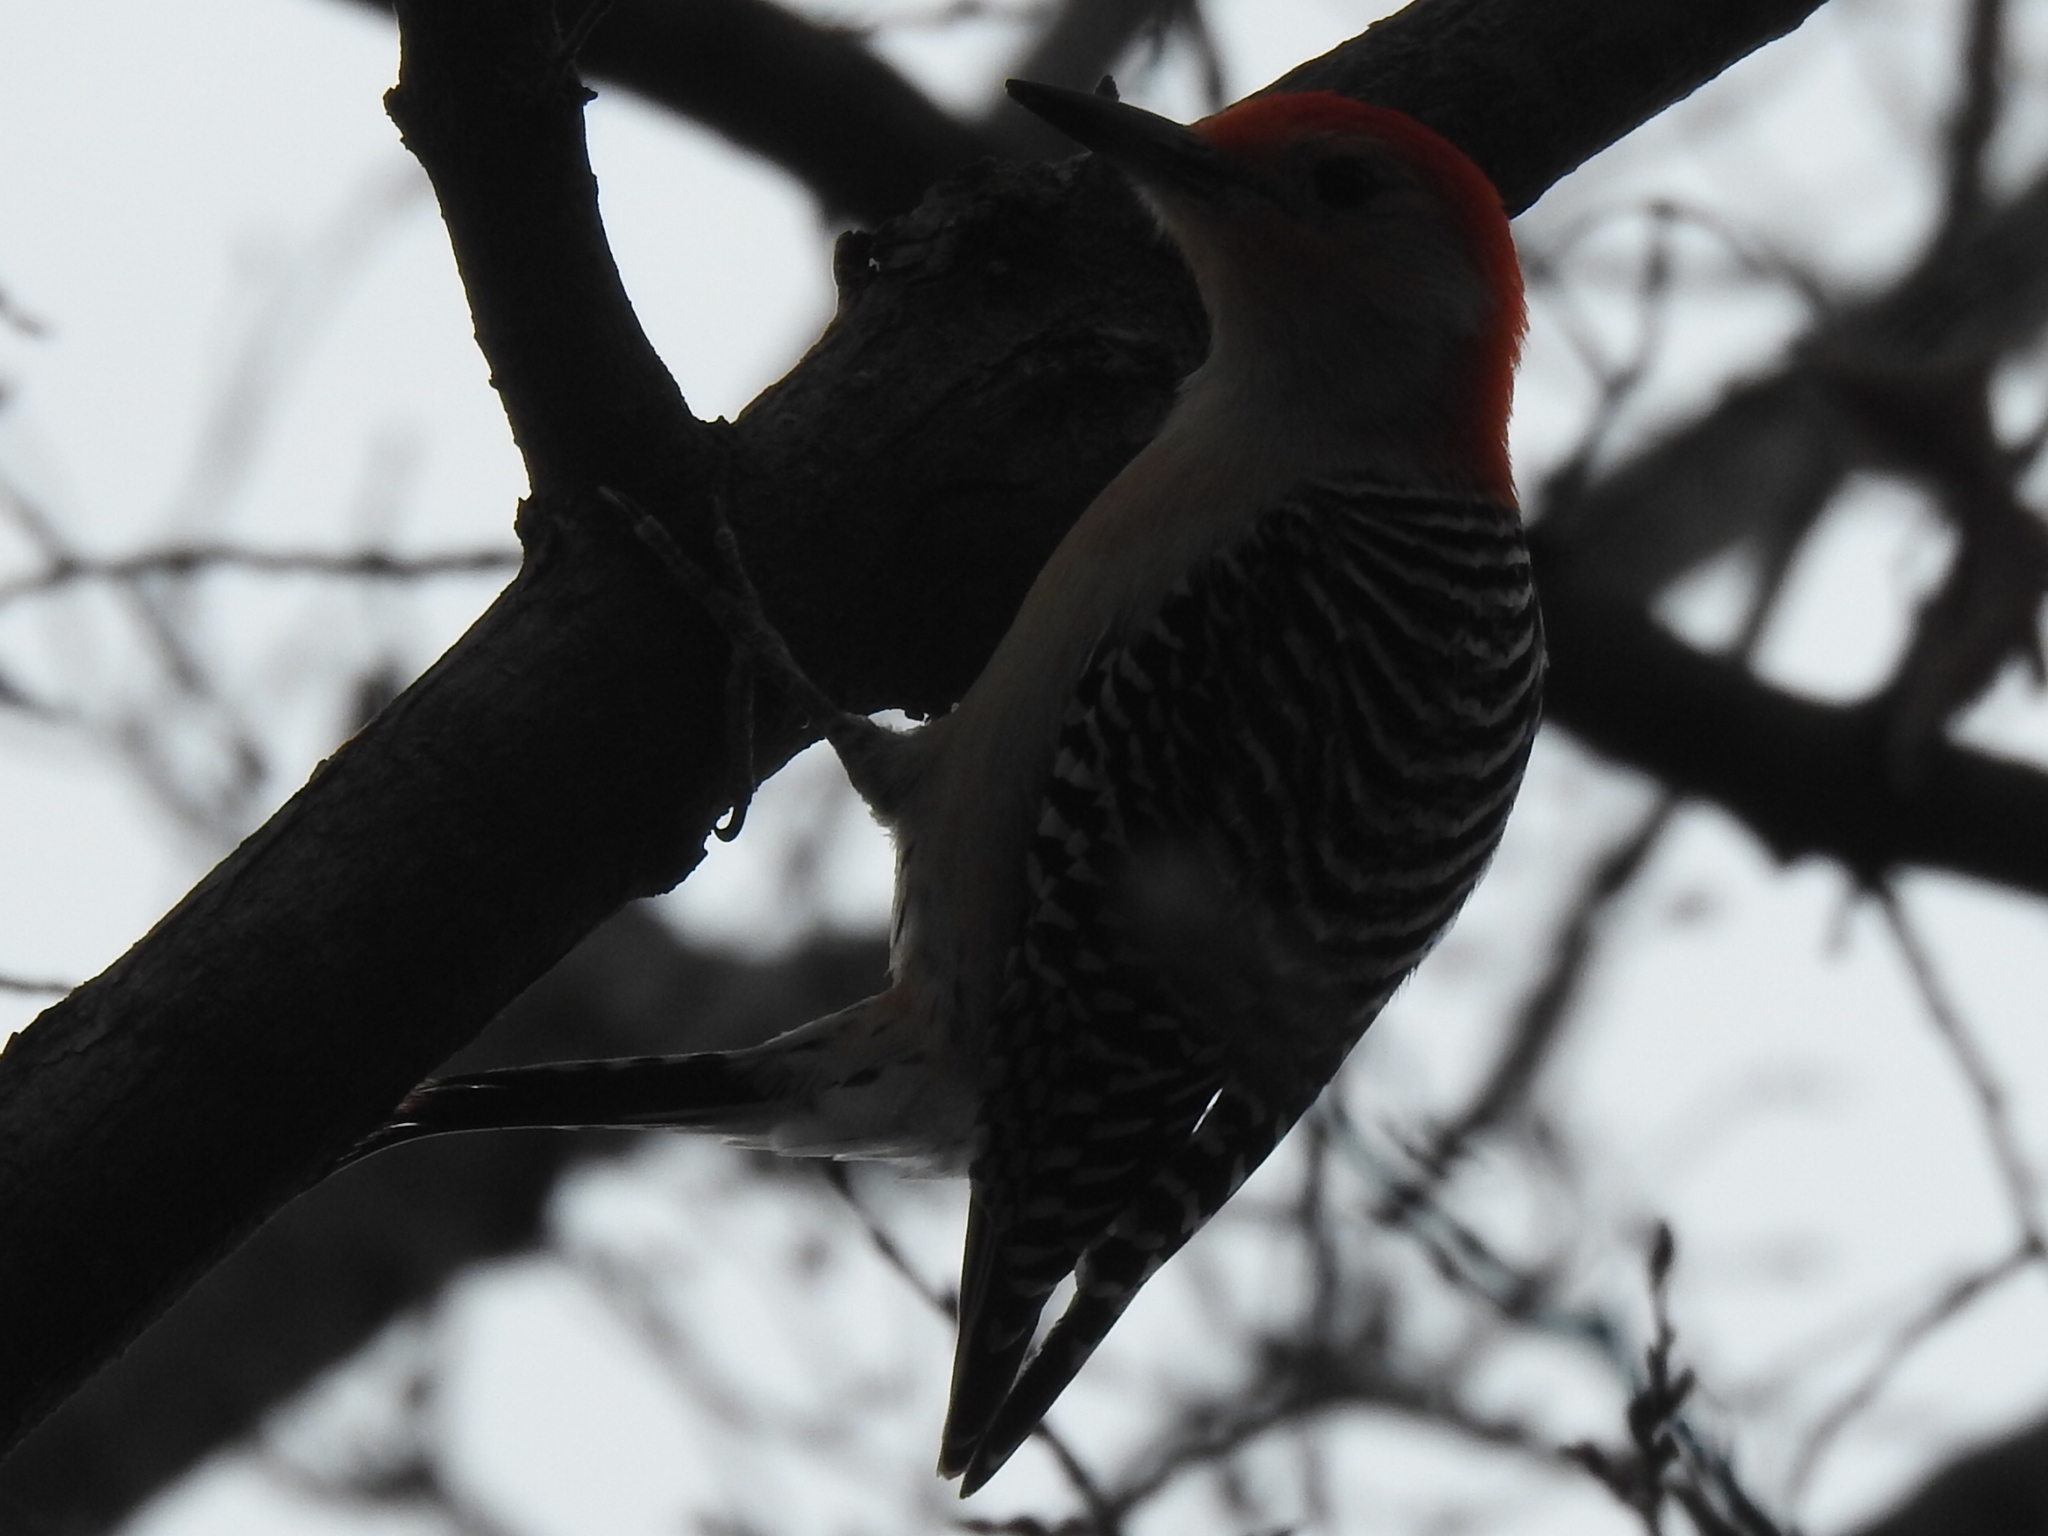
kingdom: Animalia
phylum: Chordata
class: Aves
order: Piciformes
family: Picidae
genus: Melanerpes
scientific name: Melanerpes carolinus
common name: Red-bellied woodpecker
